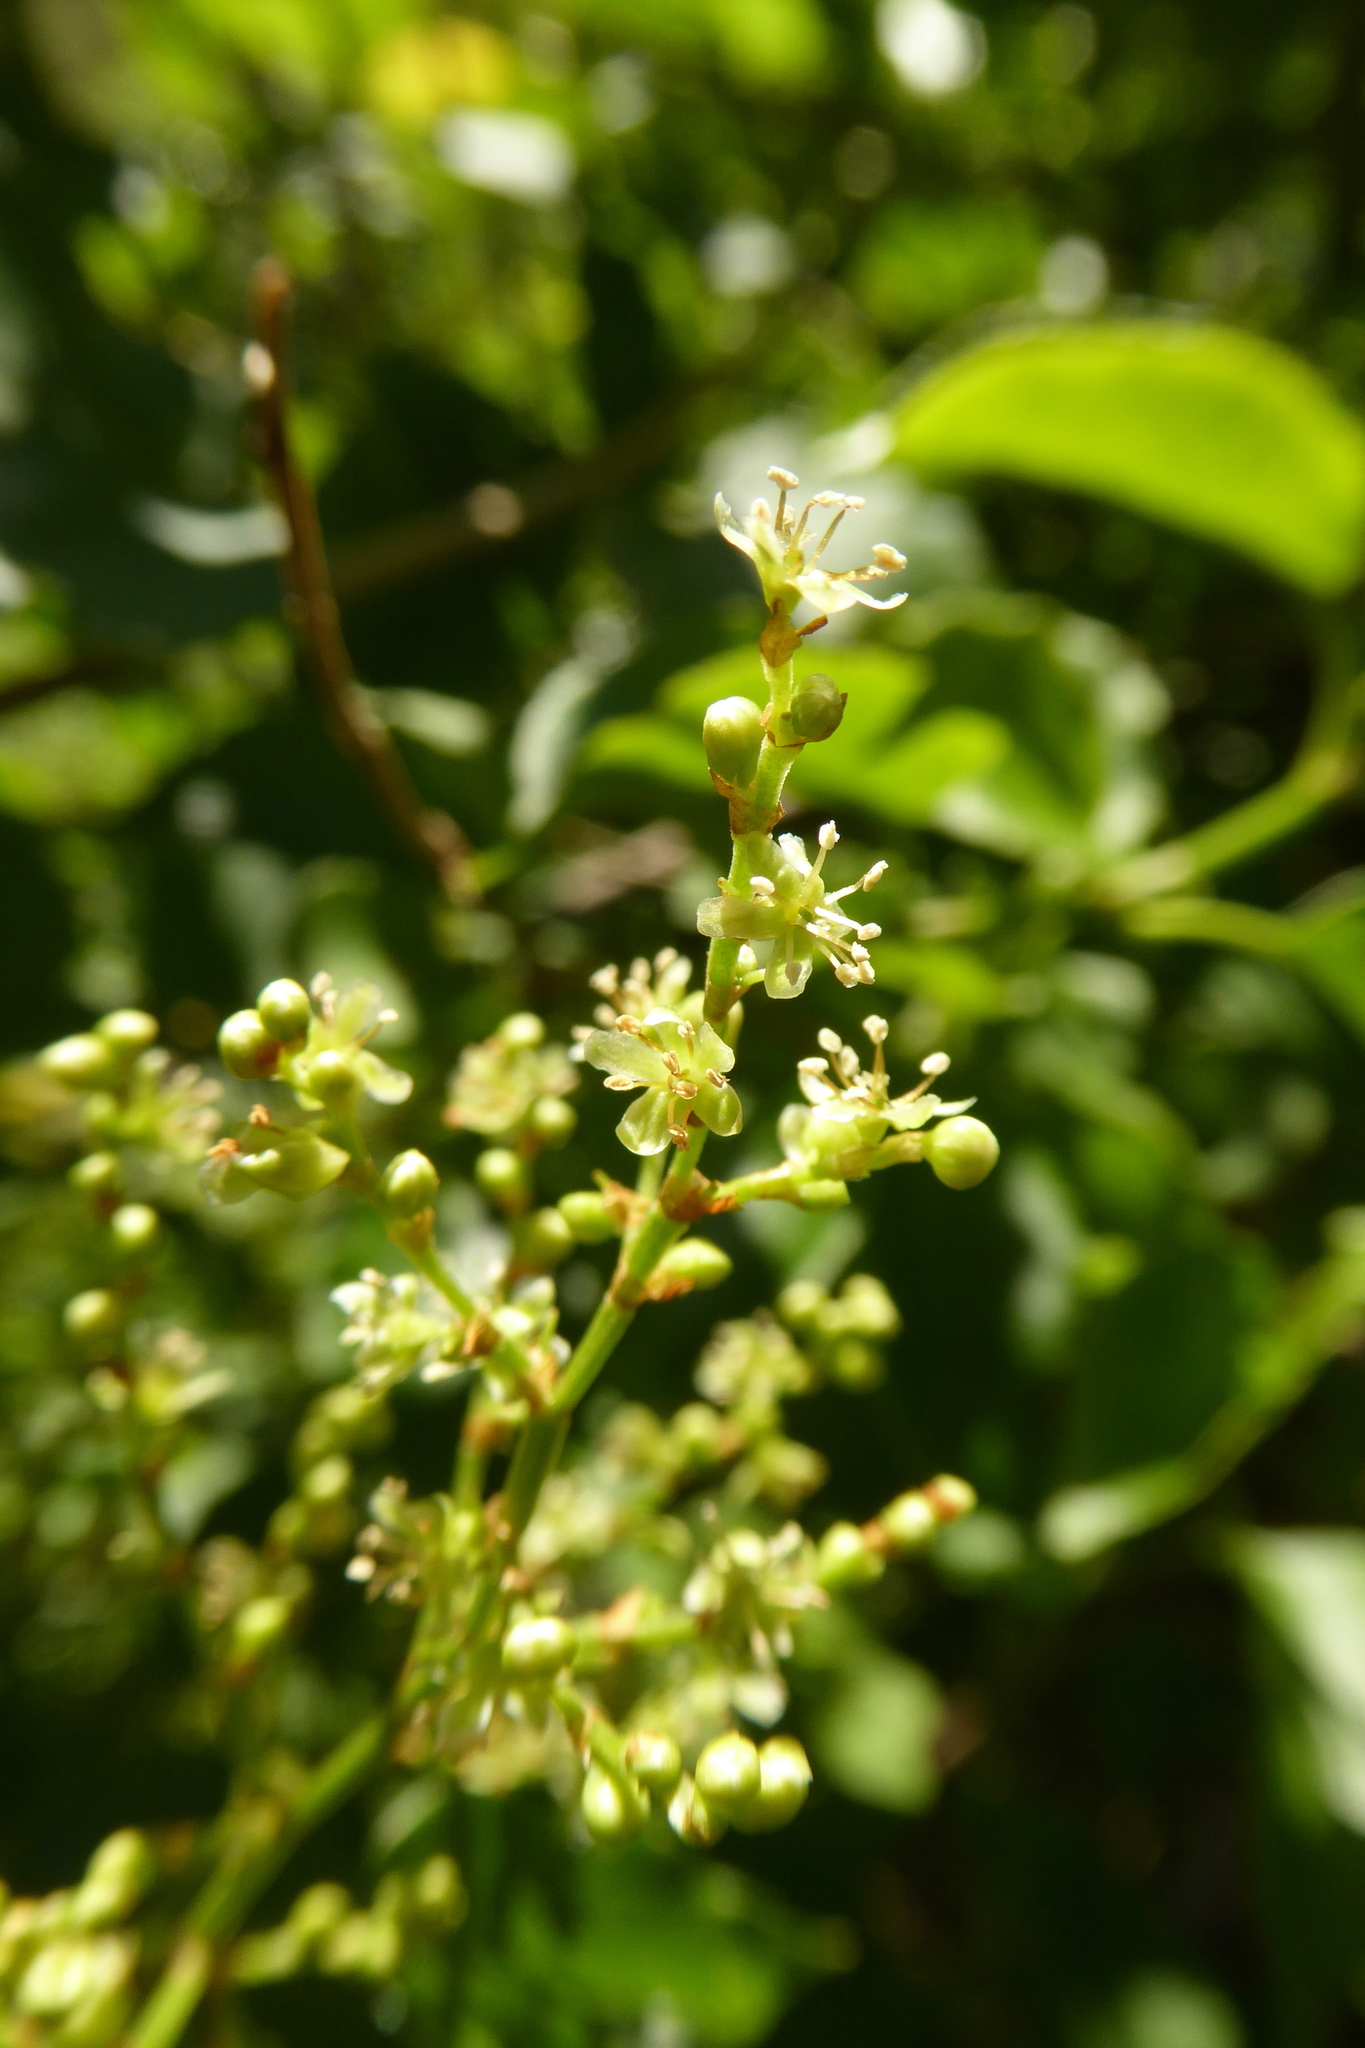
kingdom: Plantae
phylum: Tracheophyta
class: Magnoliopsida
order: Caryophyllales
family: Polygonaceae
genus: Muehlenbeckia
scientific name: Muehlenbeckia australis
